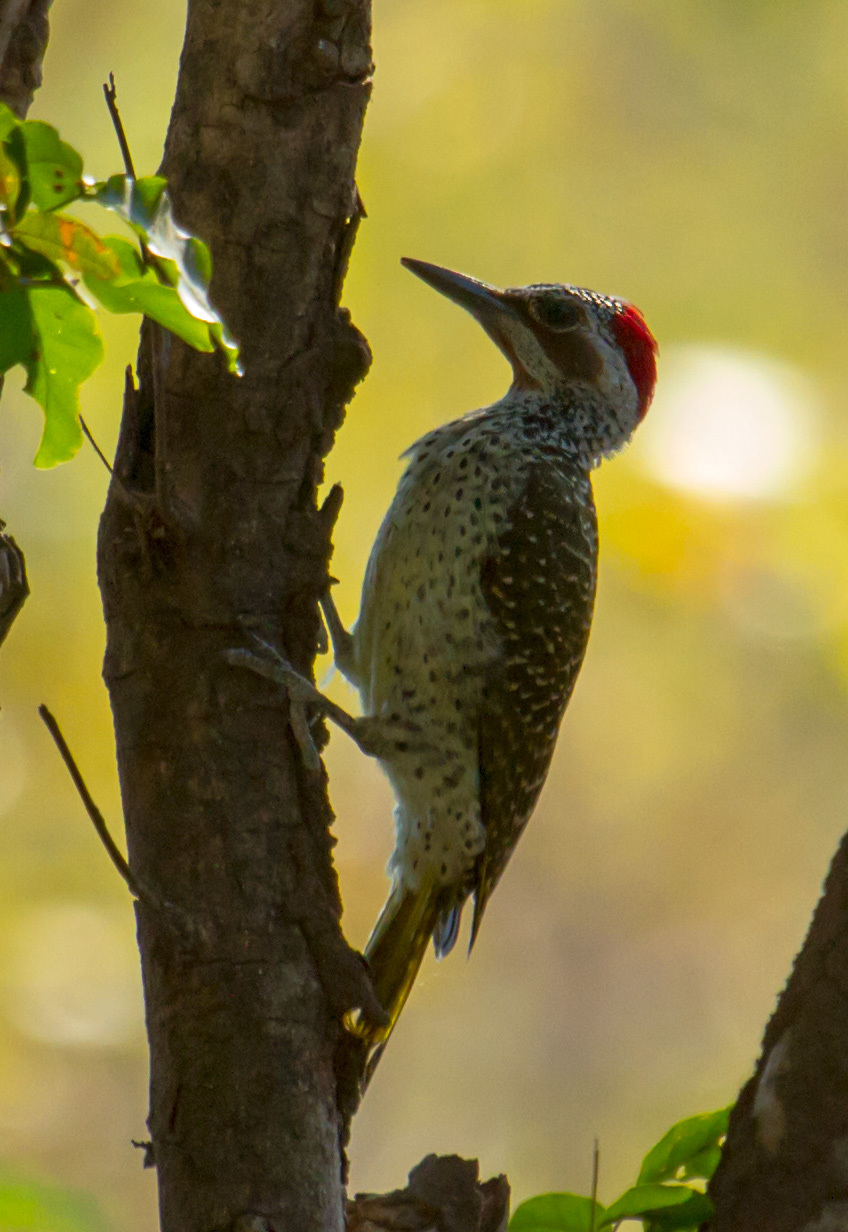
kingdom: Animalia
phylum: Chordata
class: Aves
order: Piciformes
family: Picidae
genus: Campethera
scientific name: Campethera bennettii
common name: Bennett's woodpecker
